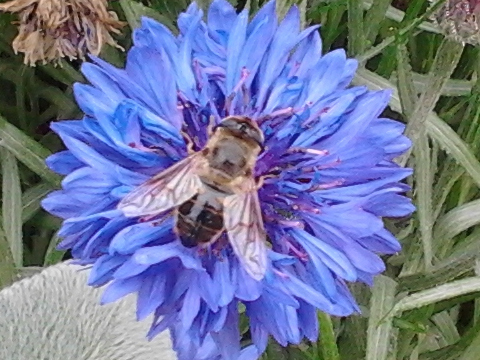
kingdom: Animalia
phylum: Arthropoda
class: Insecta
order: Diptera
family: Syrphidae
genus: Eristalis
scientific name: Eristalis tenax
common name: Drone fly
